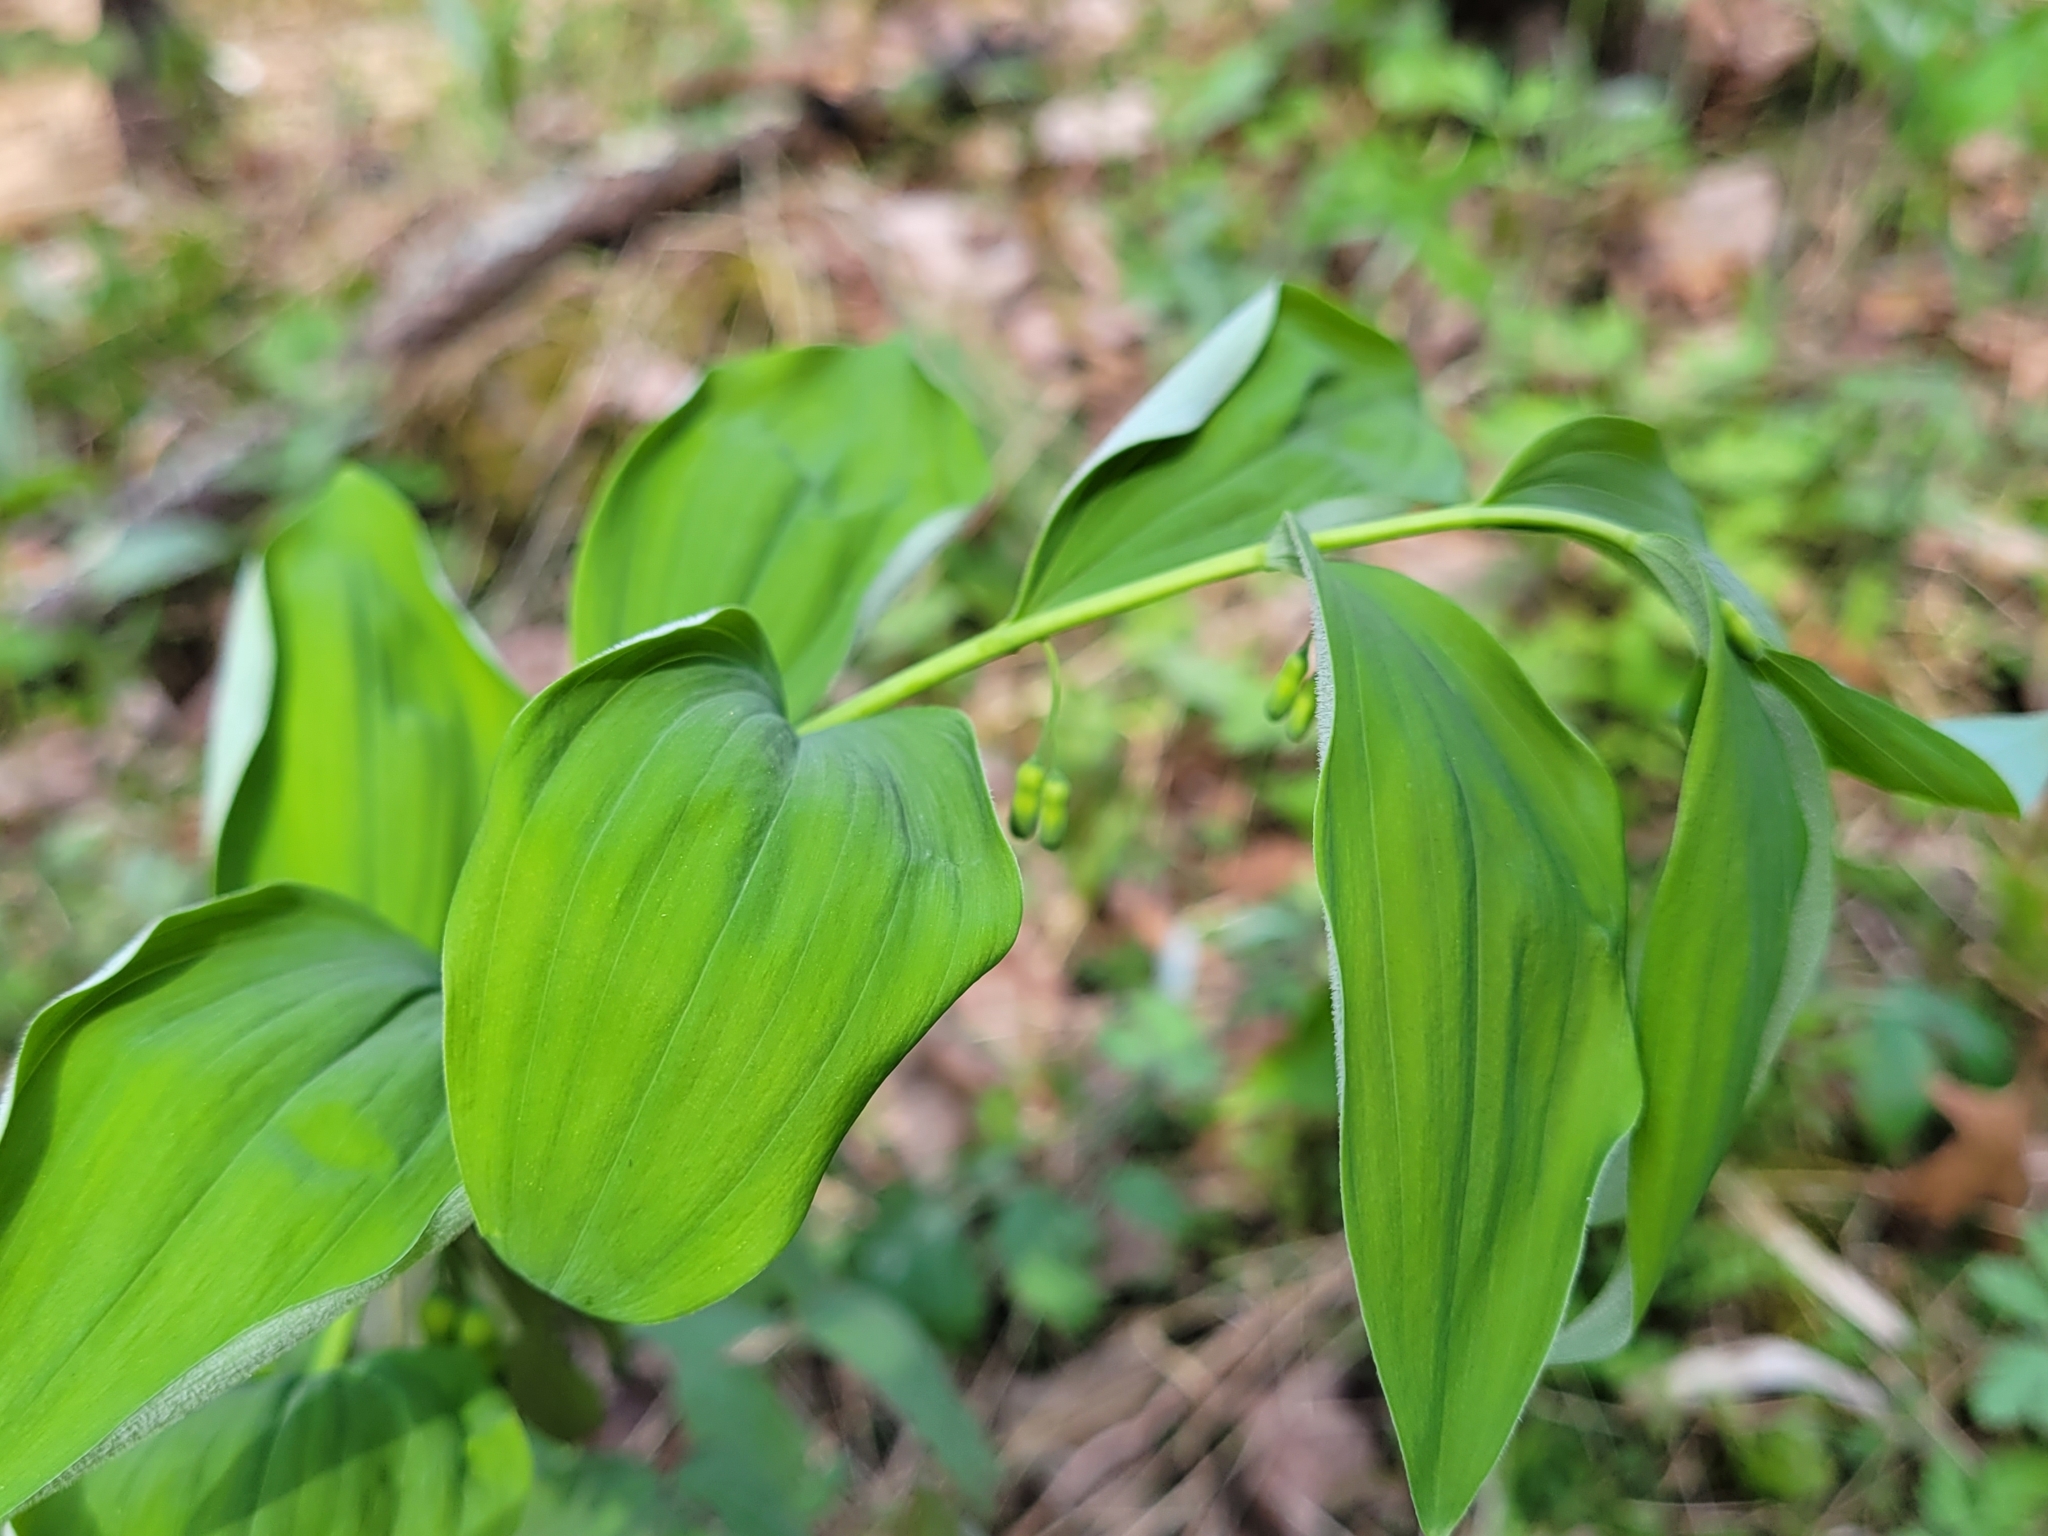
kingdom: Plantae
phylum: Tracheophyta
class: Liliopsida
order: Asparagales
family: Asparagaceae
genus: Polygonatum
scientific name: Polygonatum pubescens
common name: Downy solomon's seal
